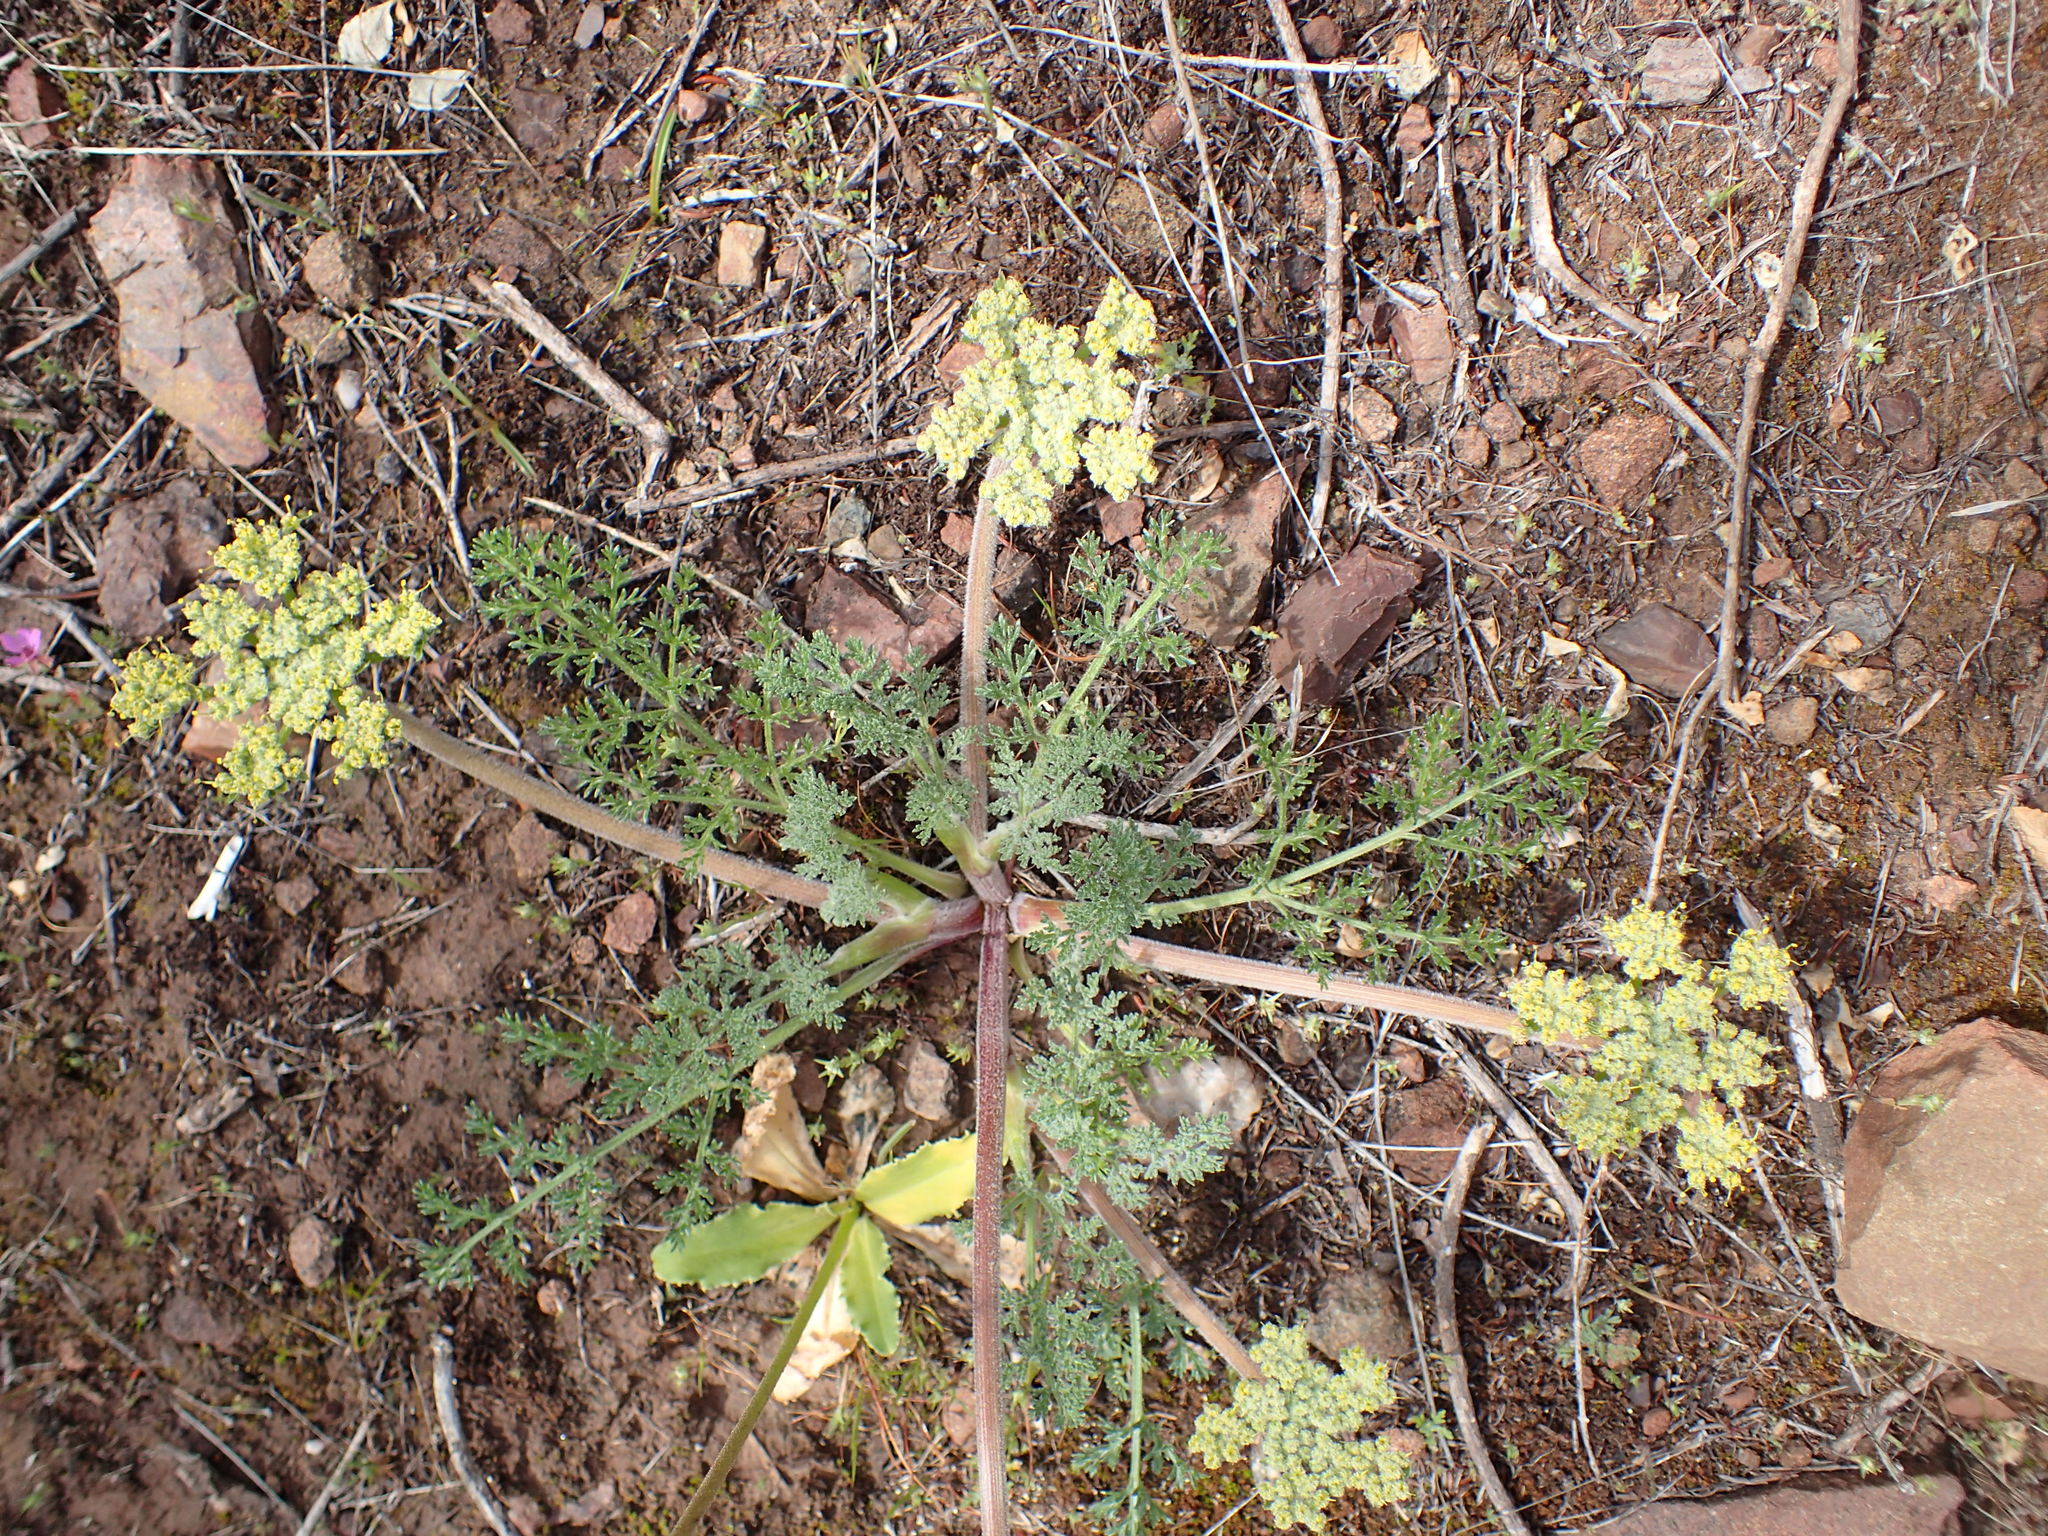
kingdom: Plantae
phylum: Tracheophyta
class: Magnoliopsida
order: Apiales
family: Apiaceae
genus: Lomatium
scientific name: Lomatium dasycarpum
